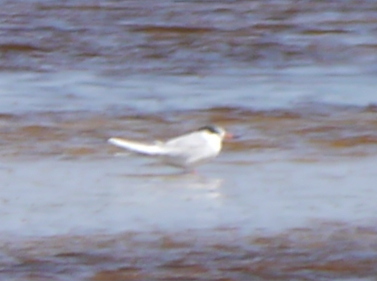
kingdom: Animalia
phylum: Chordata
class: Aves
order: Charadriiformes
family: Laridae
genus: Sterna
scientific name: Sterna forsteri
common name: Forster's tern
